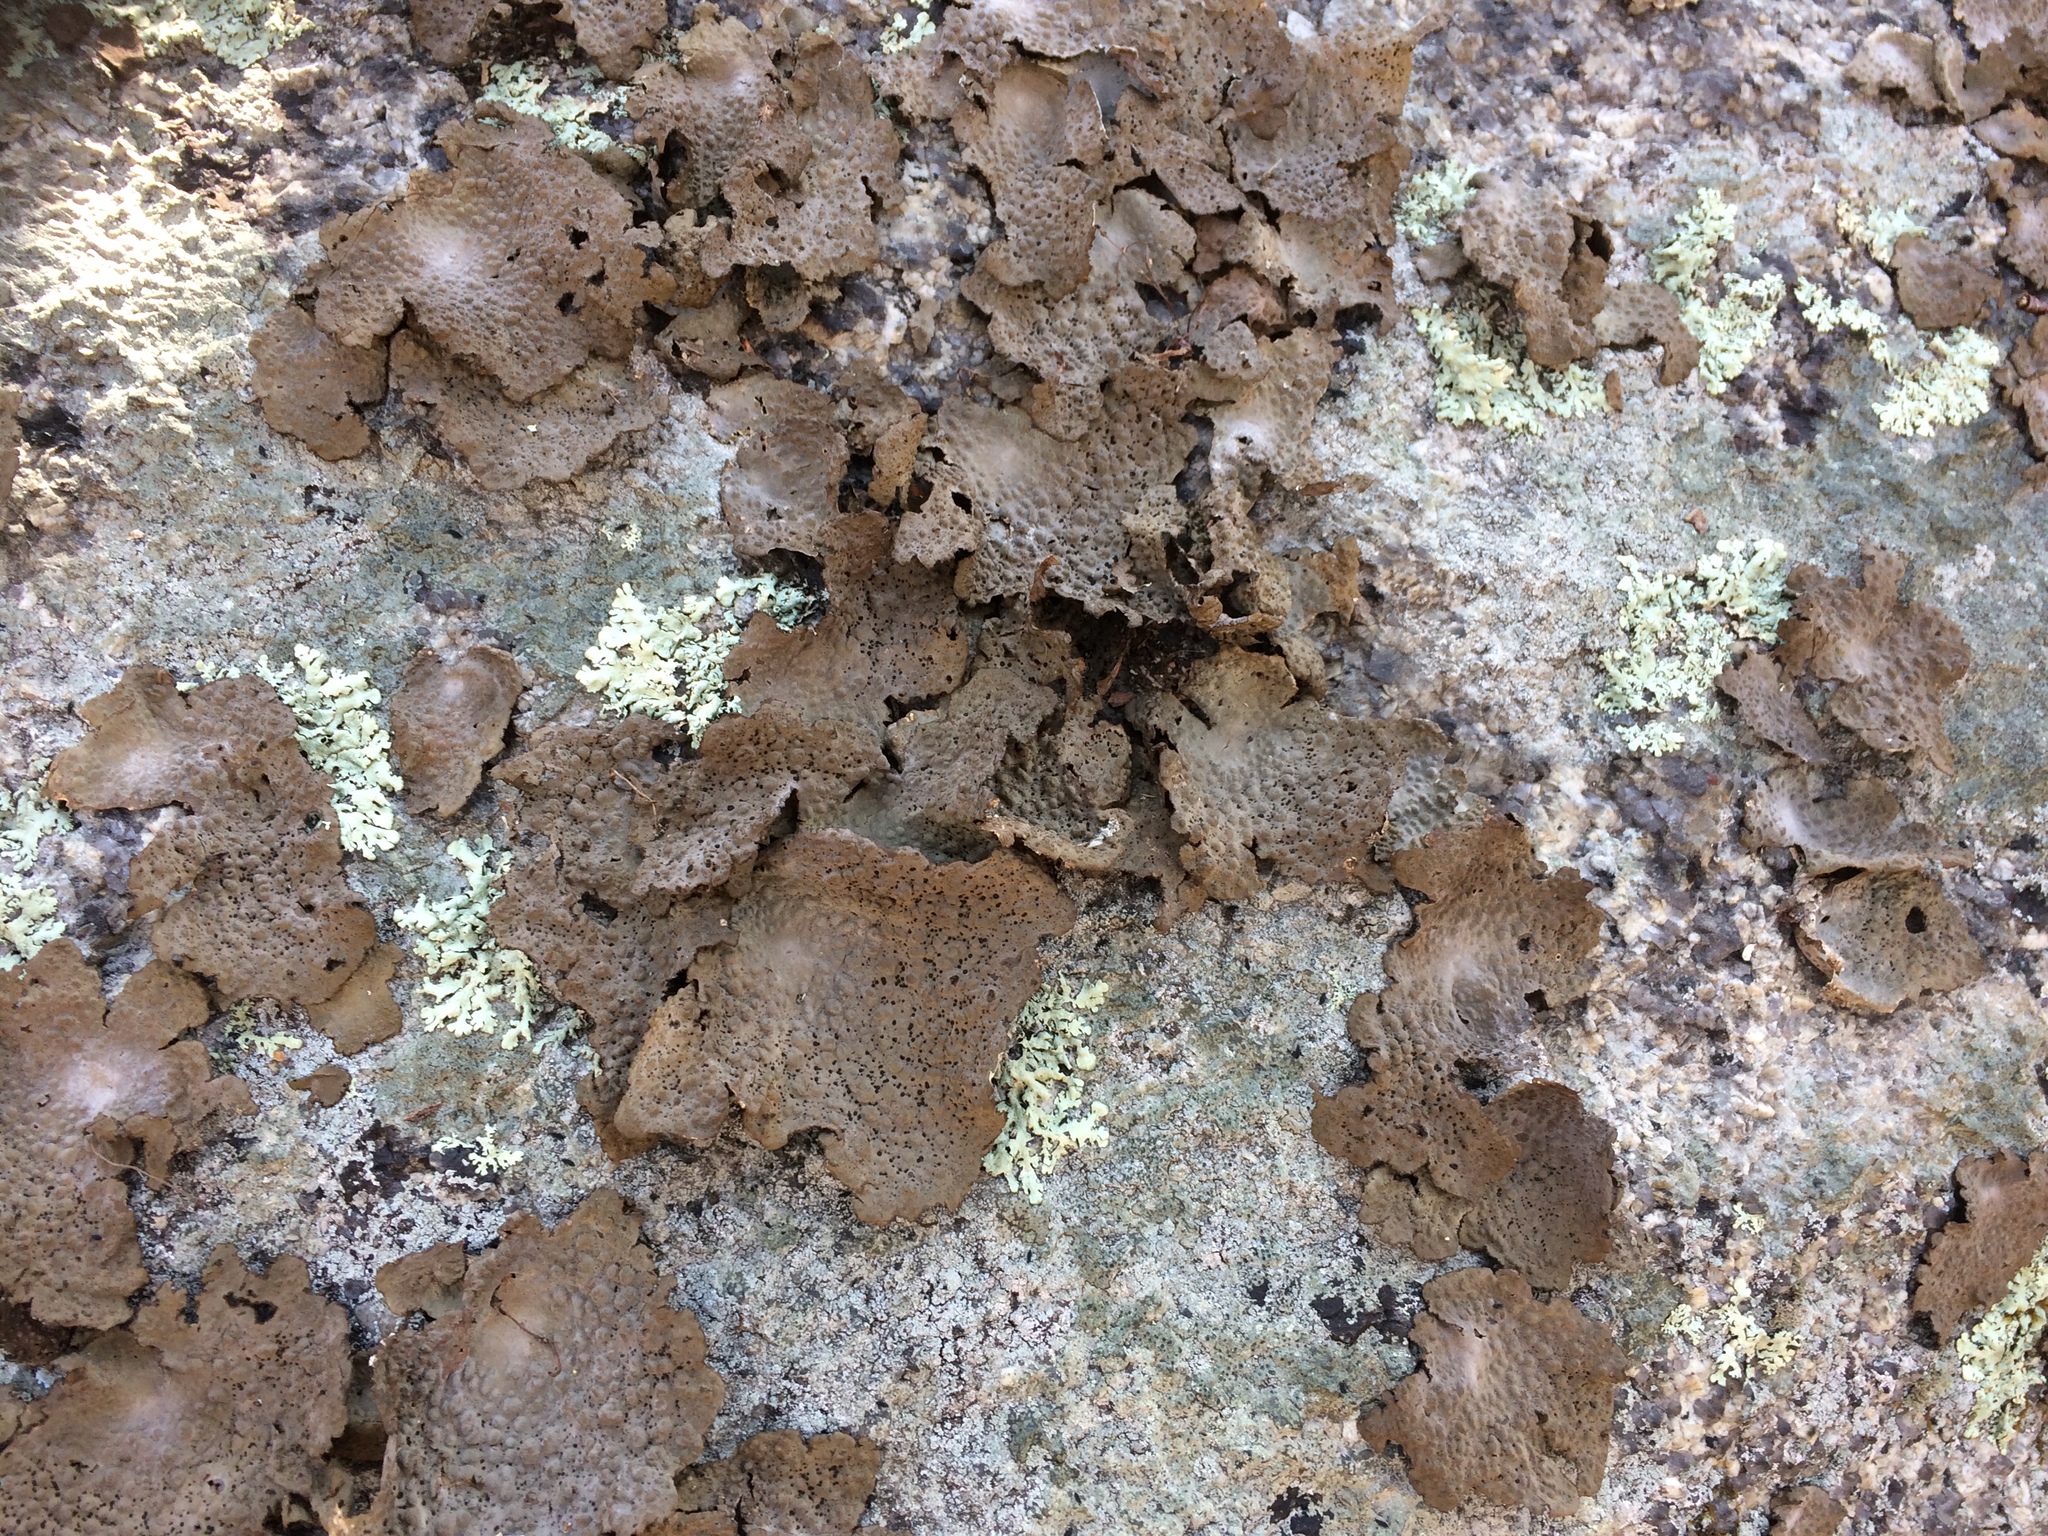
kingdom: Fungi
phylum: Ascomycota
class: Lecanoromycetes
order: Umbilicariales
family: Umbilicariaceae
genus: Umbilicaria
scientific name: Umbilicaria mammulata
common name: Smooth rock tripe
